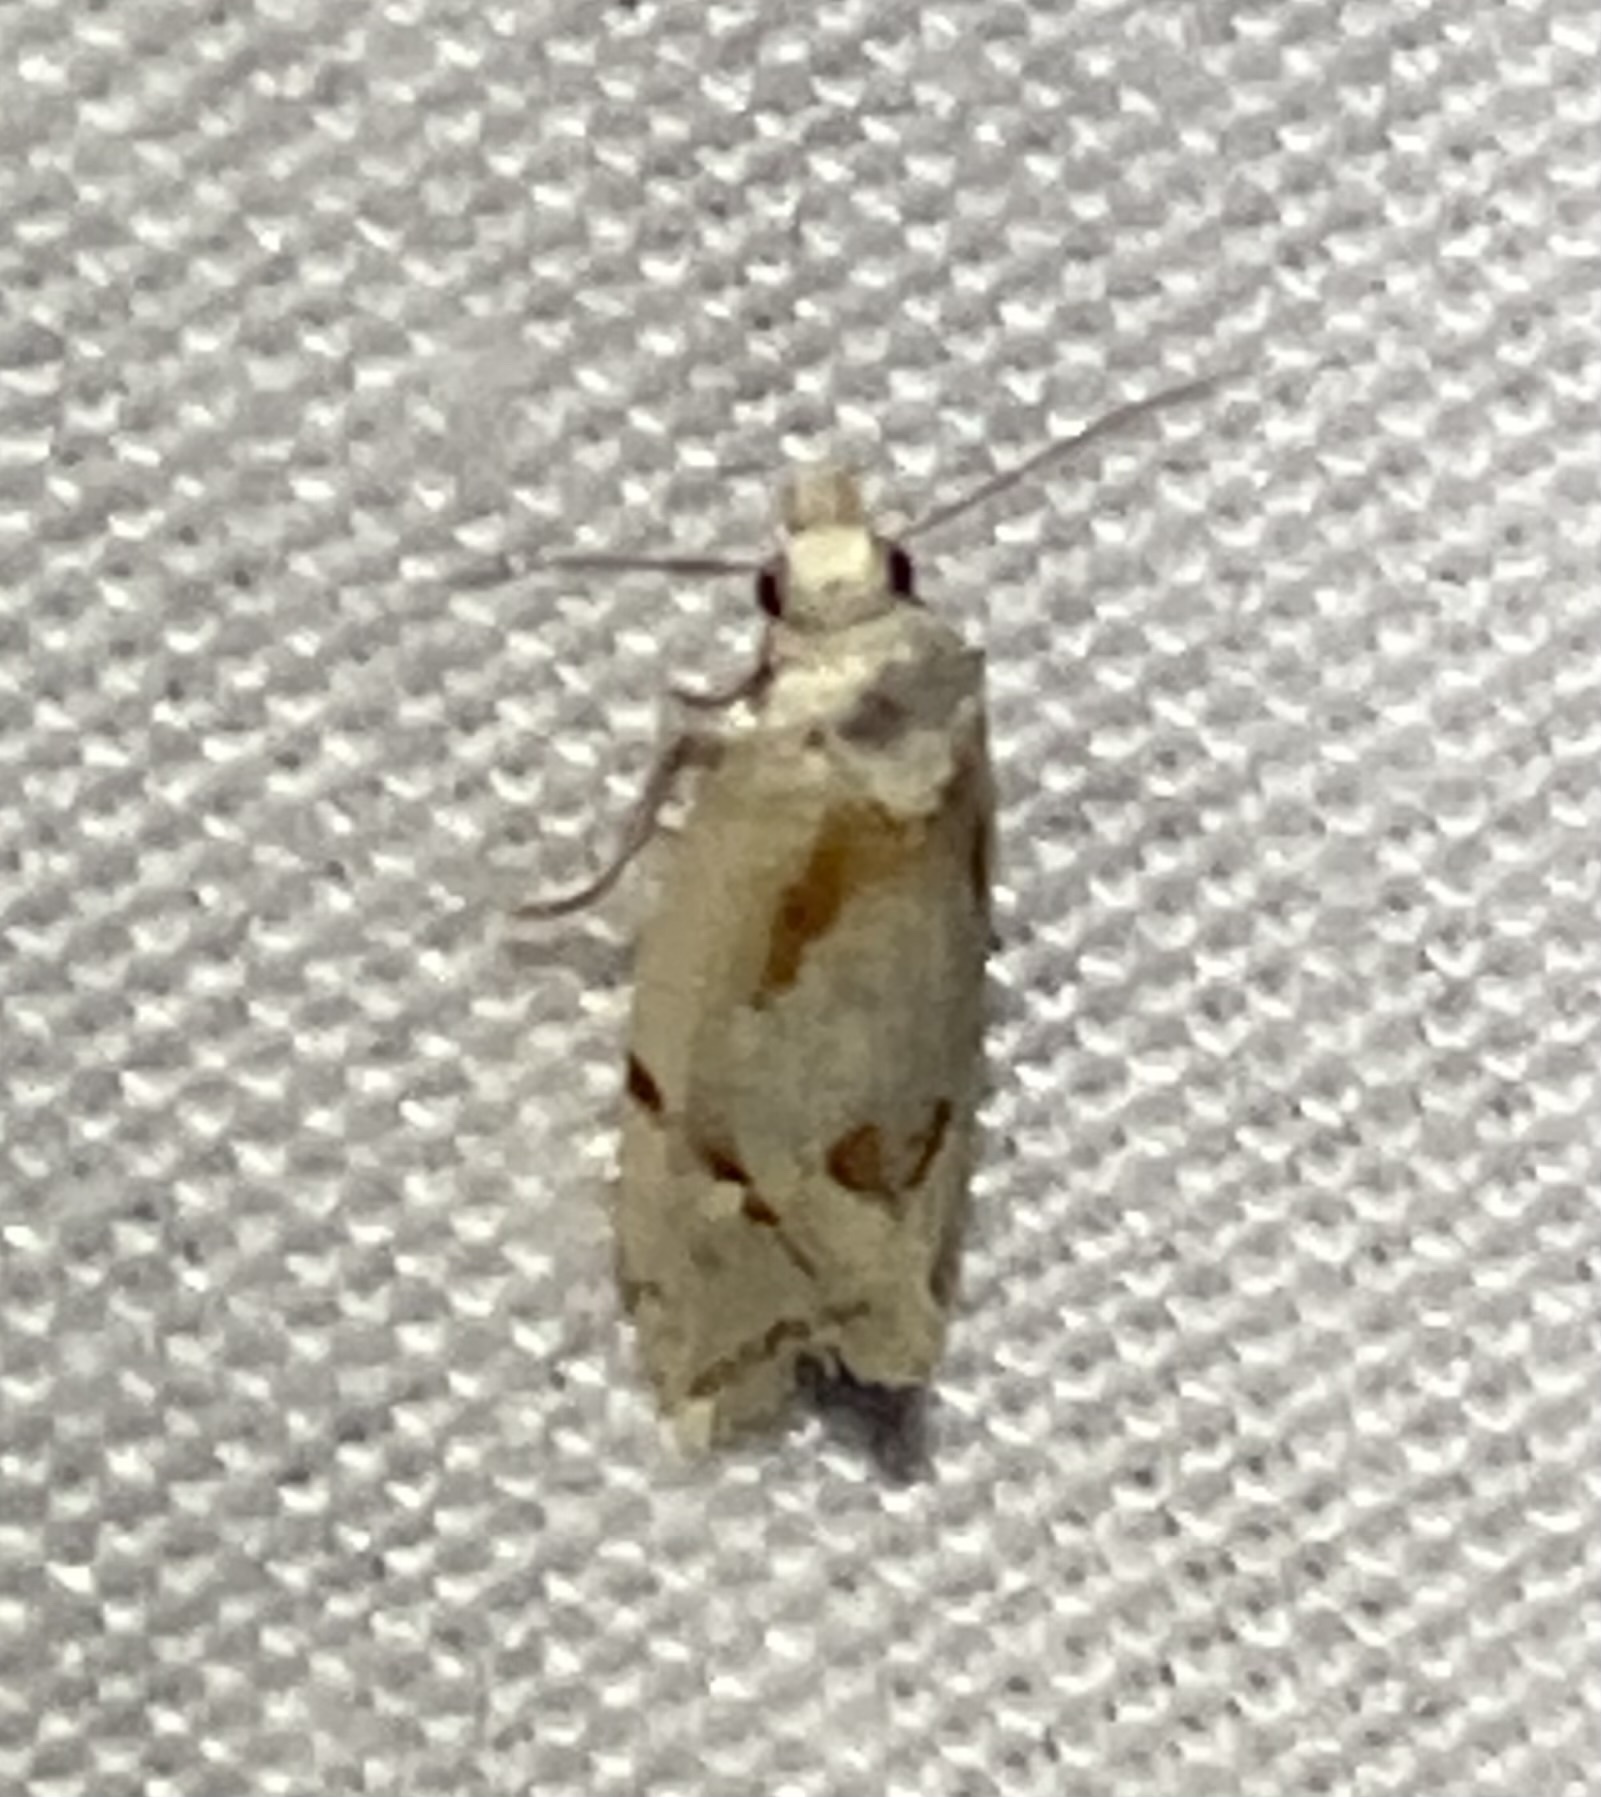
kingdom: Animalia
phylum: Arthropoda
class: Insecta
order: Lepidoptera
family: Tortricidae
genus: Aethes
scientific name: Aethes seriatana
